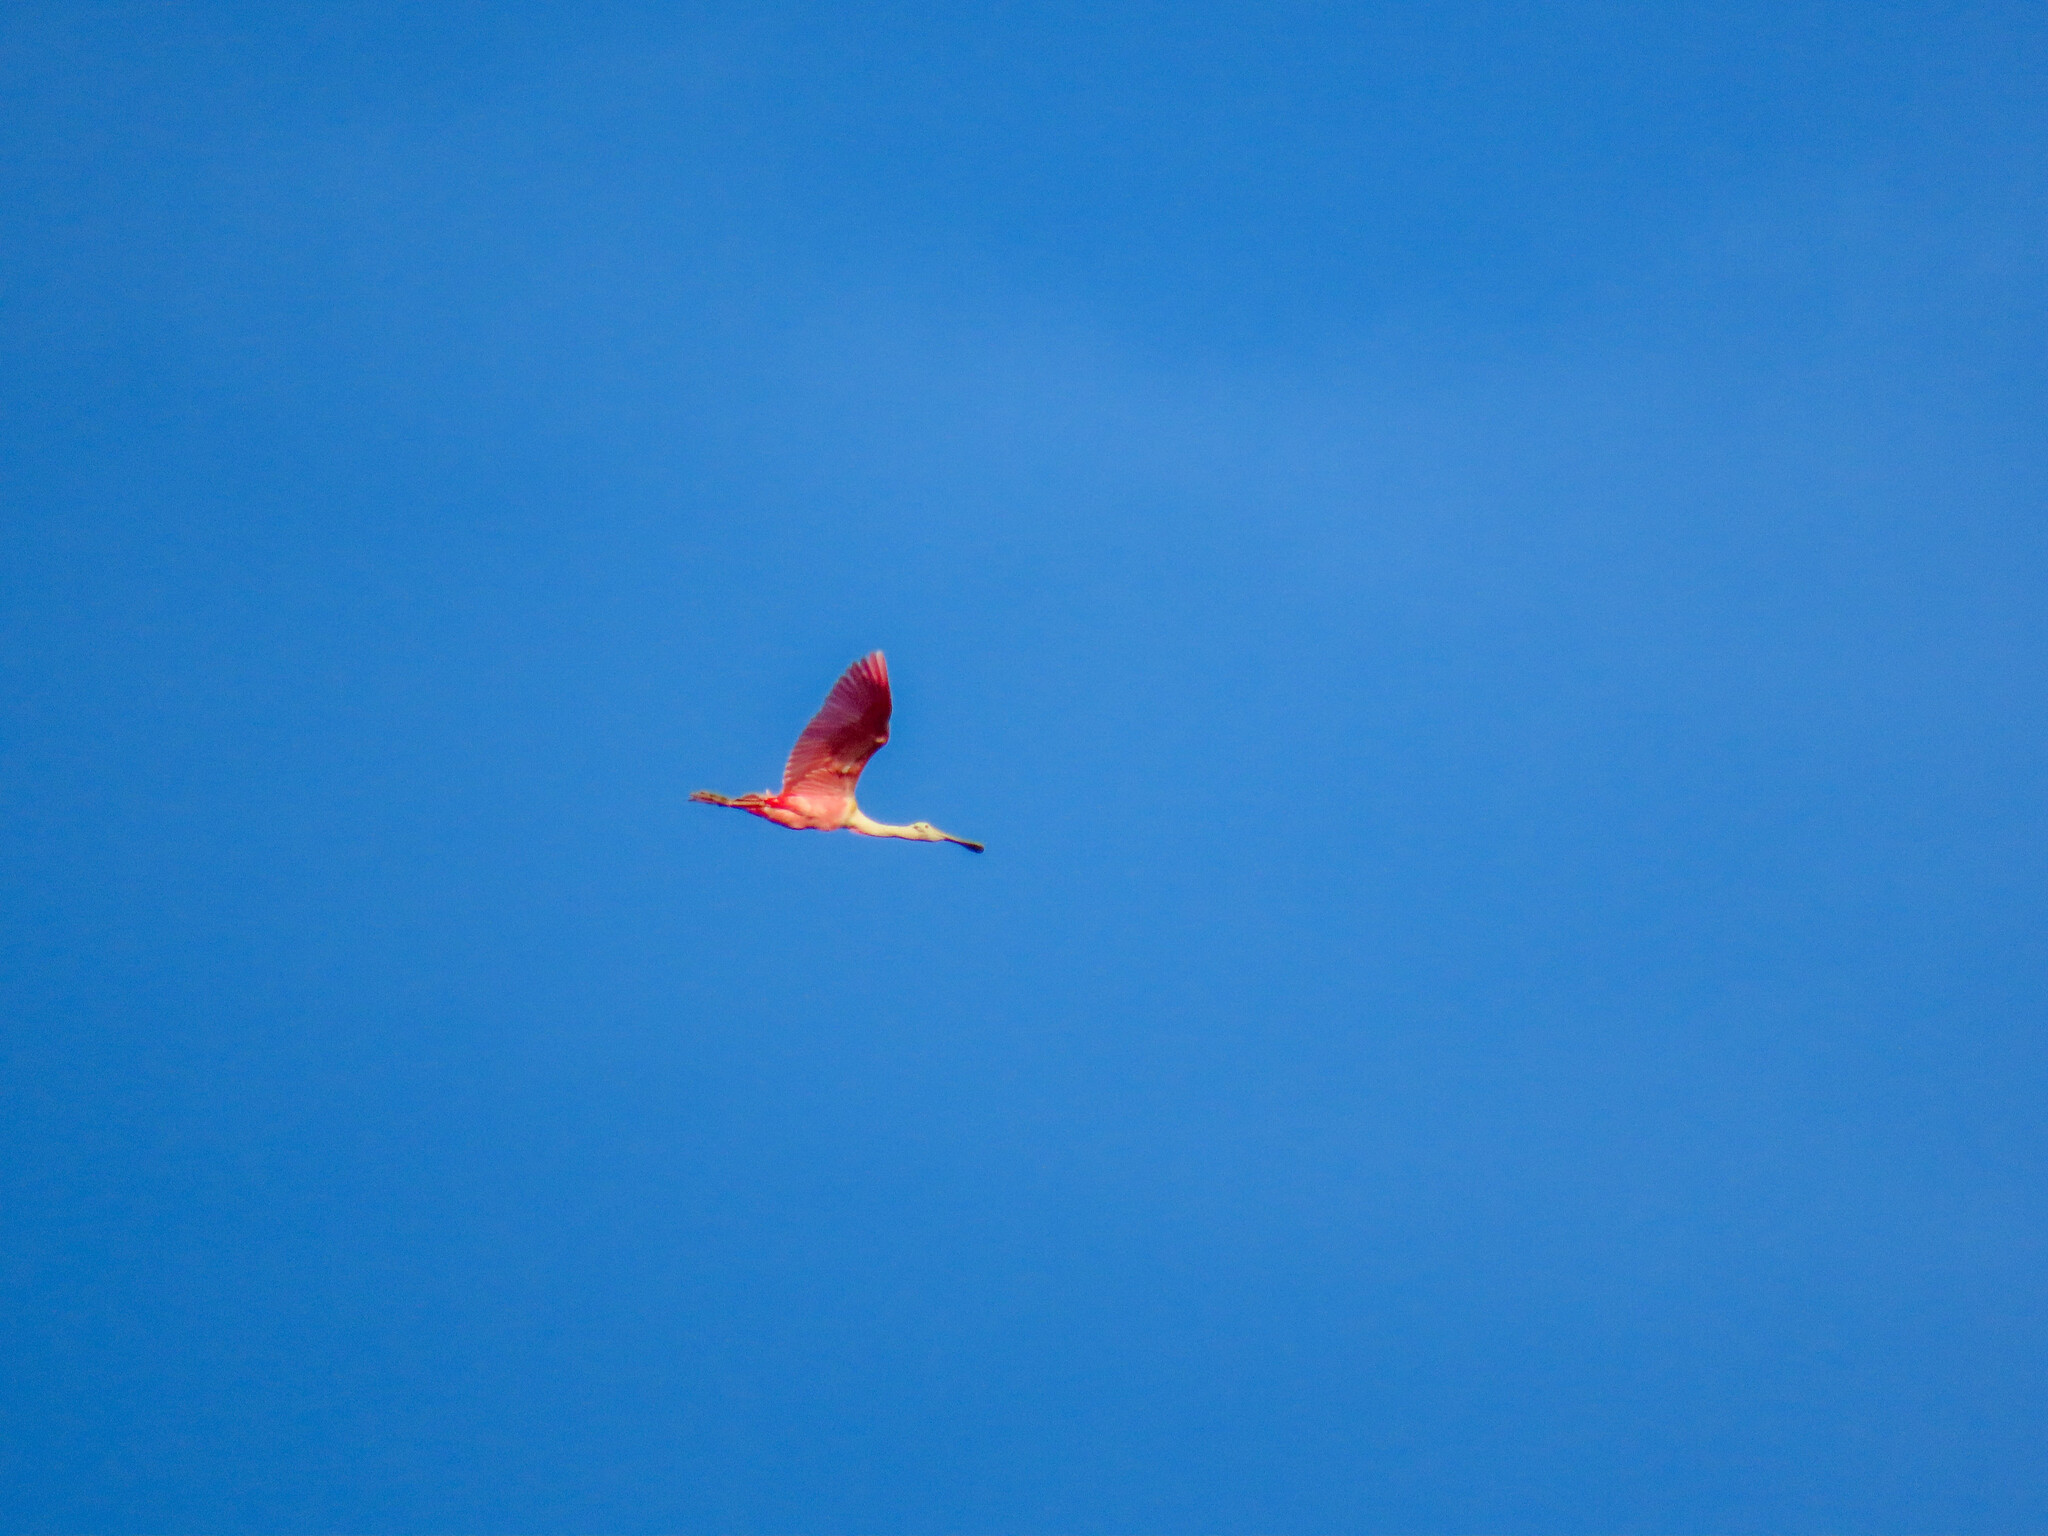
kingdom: Animalia
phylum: Chordata
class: Aves
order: Pelecaniformes
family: Threskiornithidae
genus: Platalea
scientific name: Platalea ajaja
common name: Roseate spoonbill
